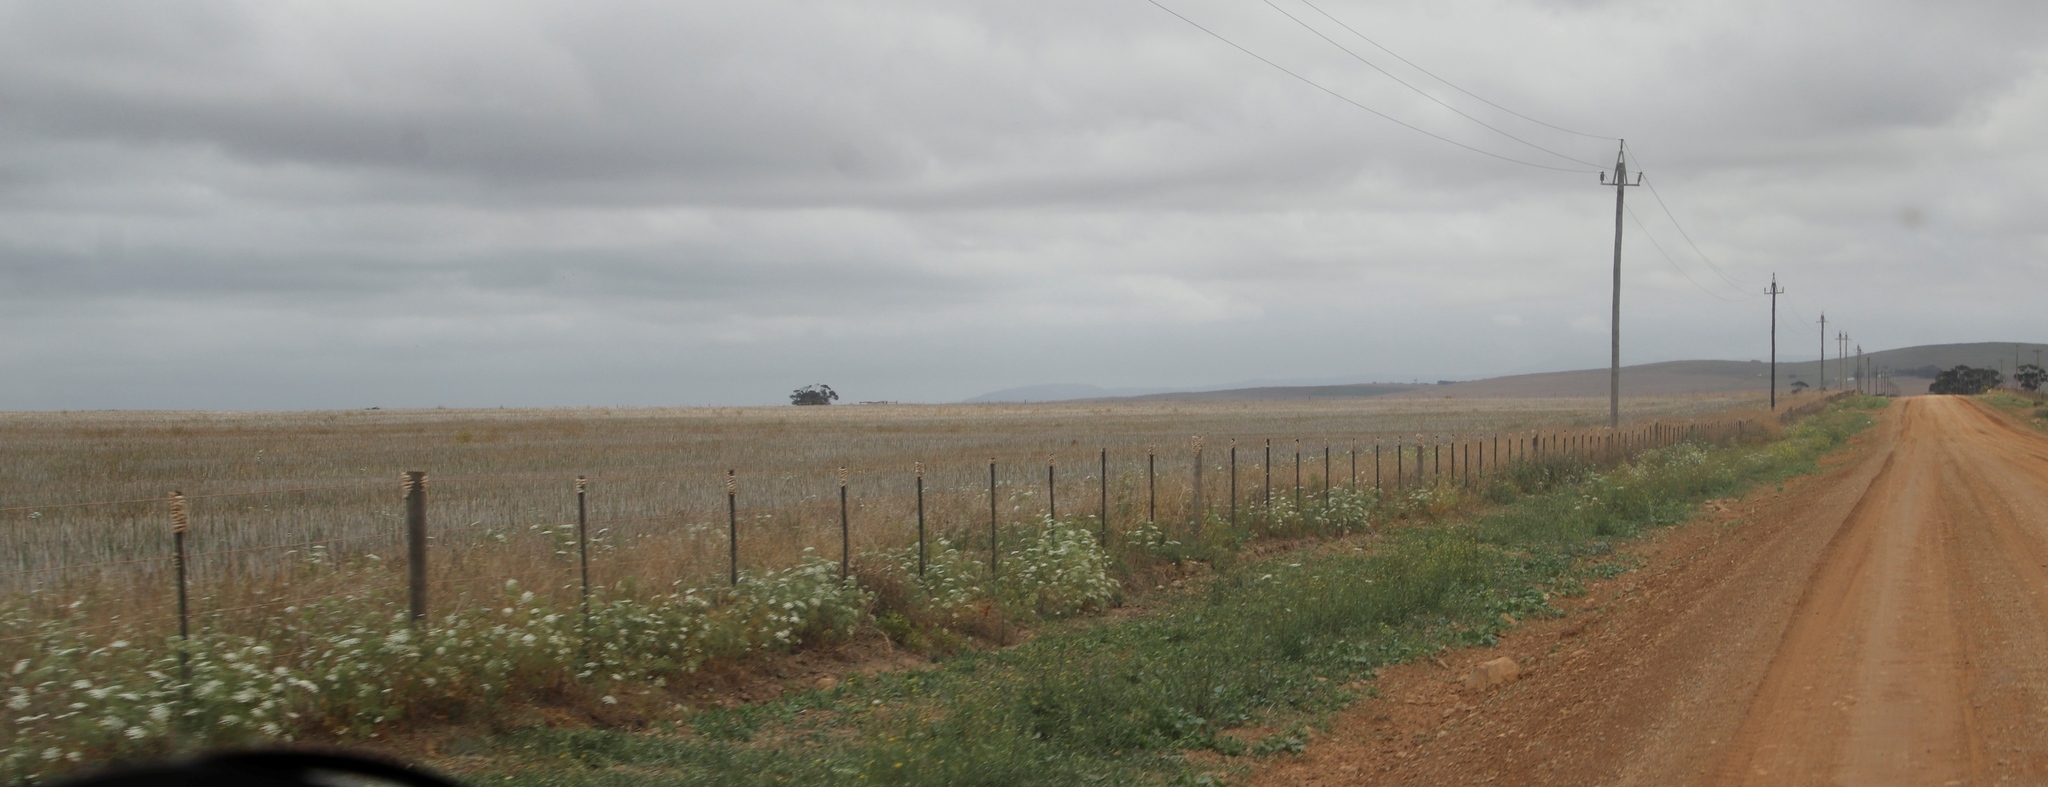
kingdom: Plantae
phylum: Tracheophyta
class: Magnoliopsida
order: Apiales
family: Apiaceae
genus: Ammi
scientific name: Ammi majus
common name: Bullwort
